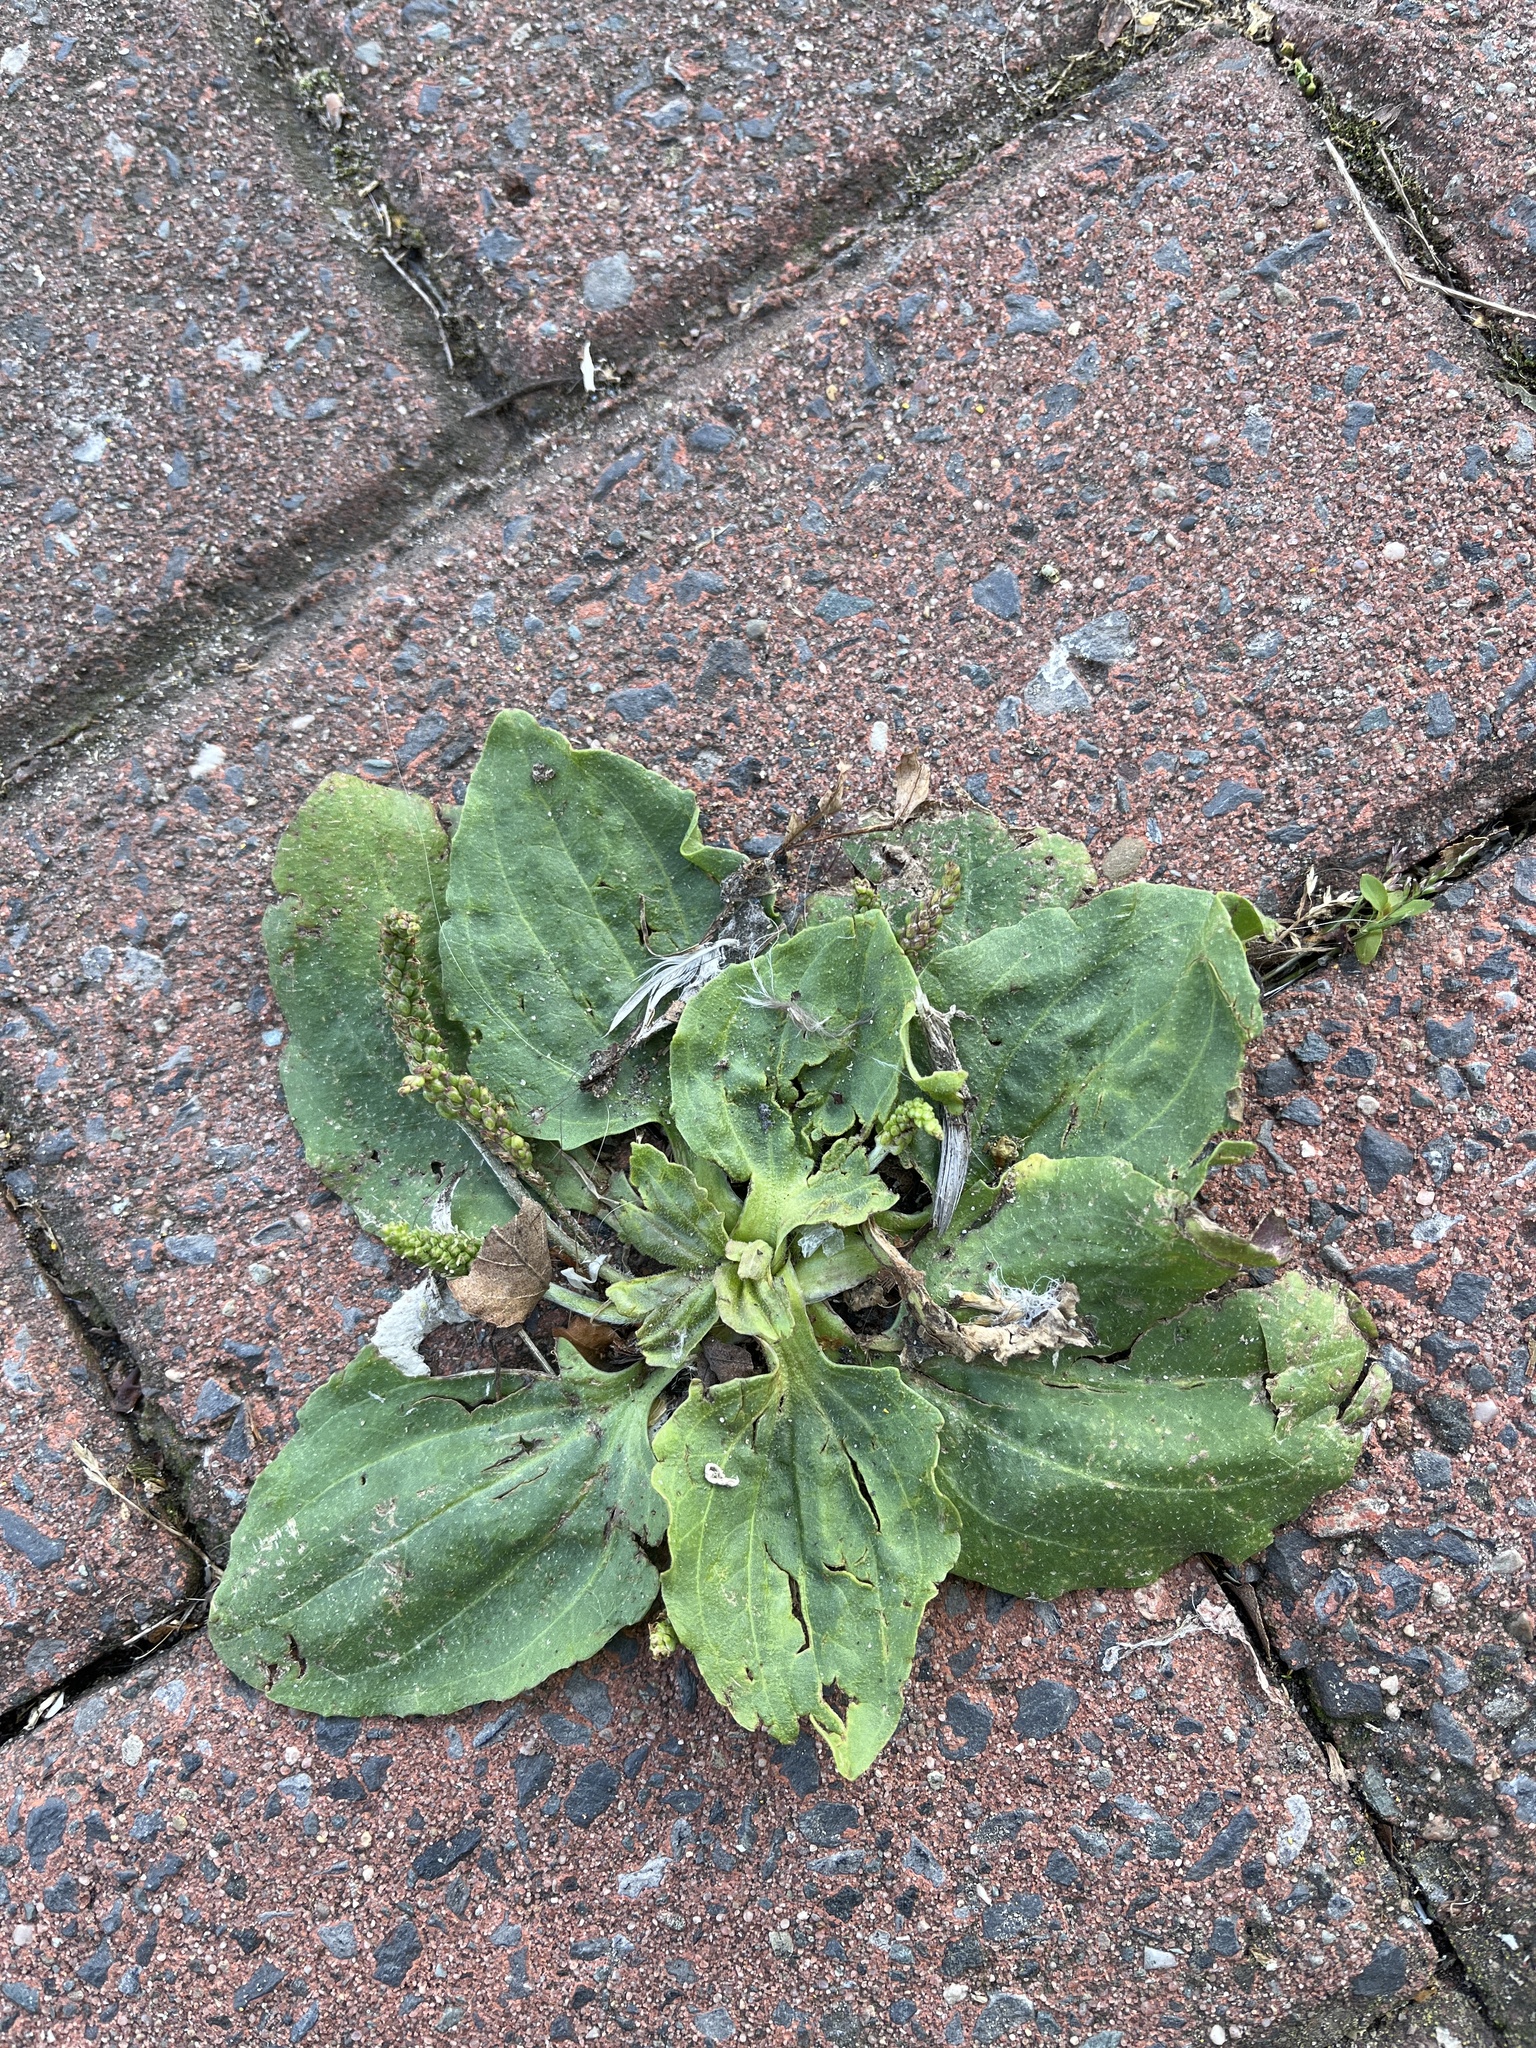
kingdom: Plantae
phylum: Tracheophyta
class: Magnoliopsida
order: Lamiales
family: Plantaginaceae
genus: Plantago
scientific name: Plantago major
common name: Common plantain
